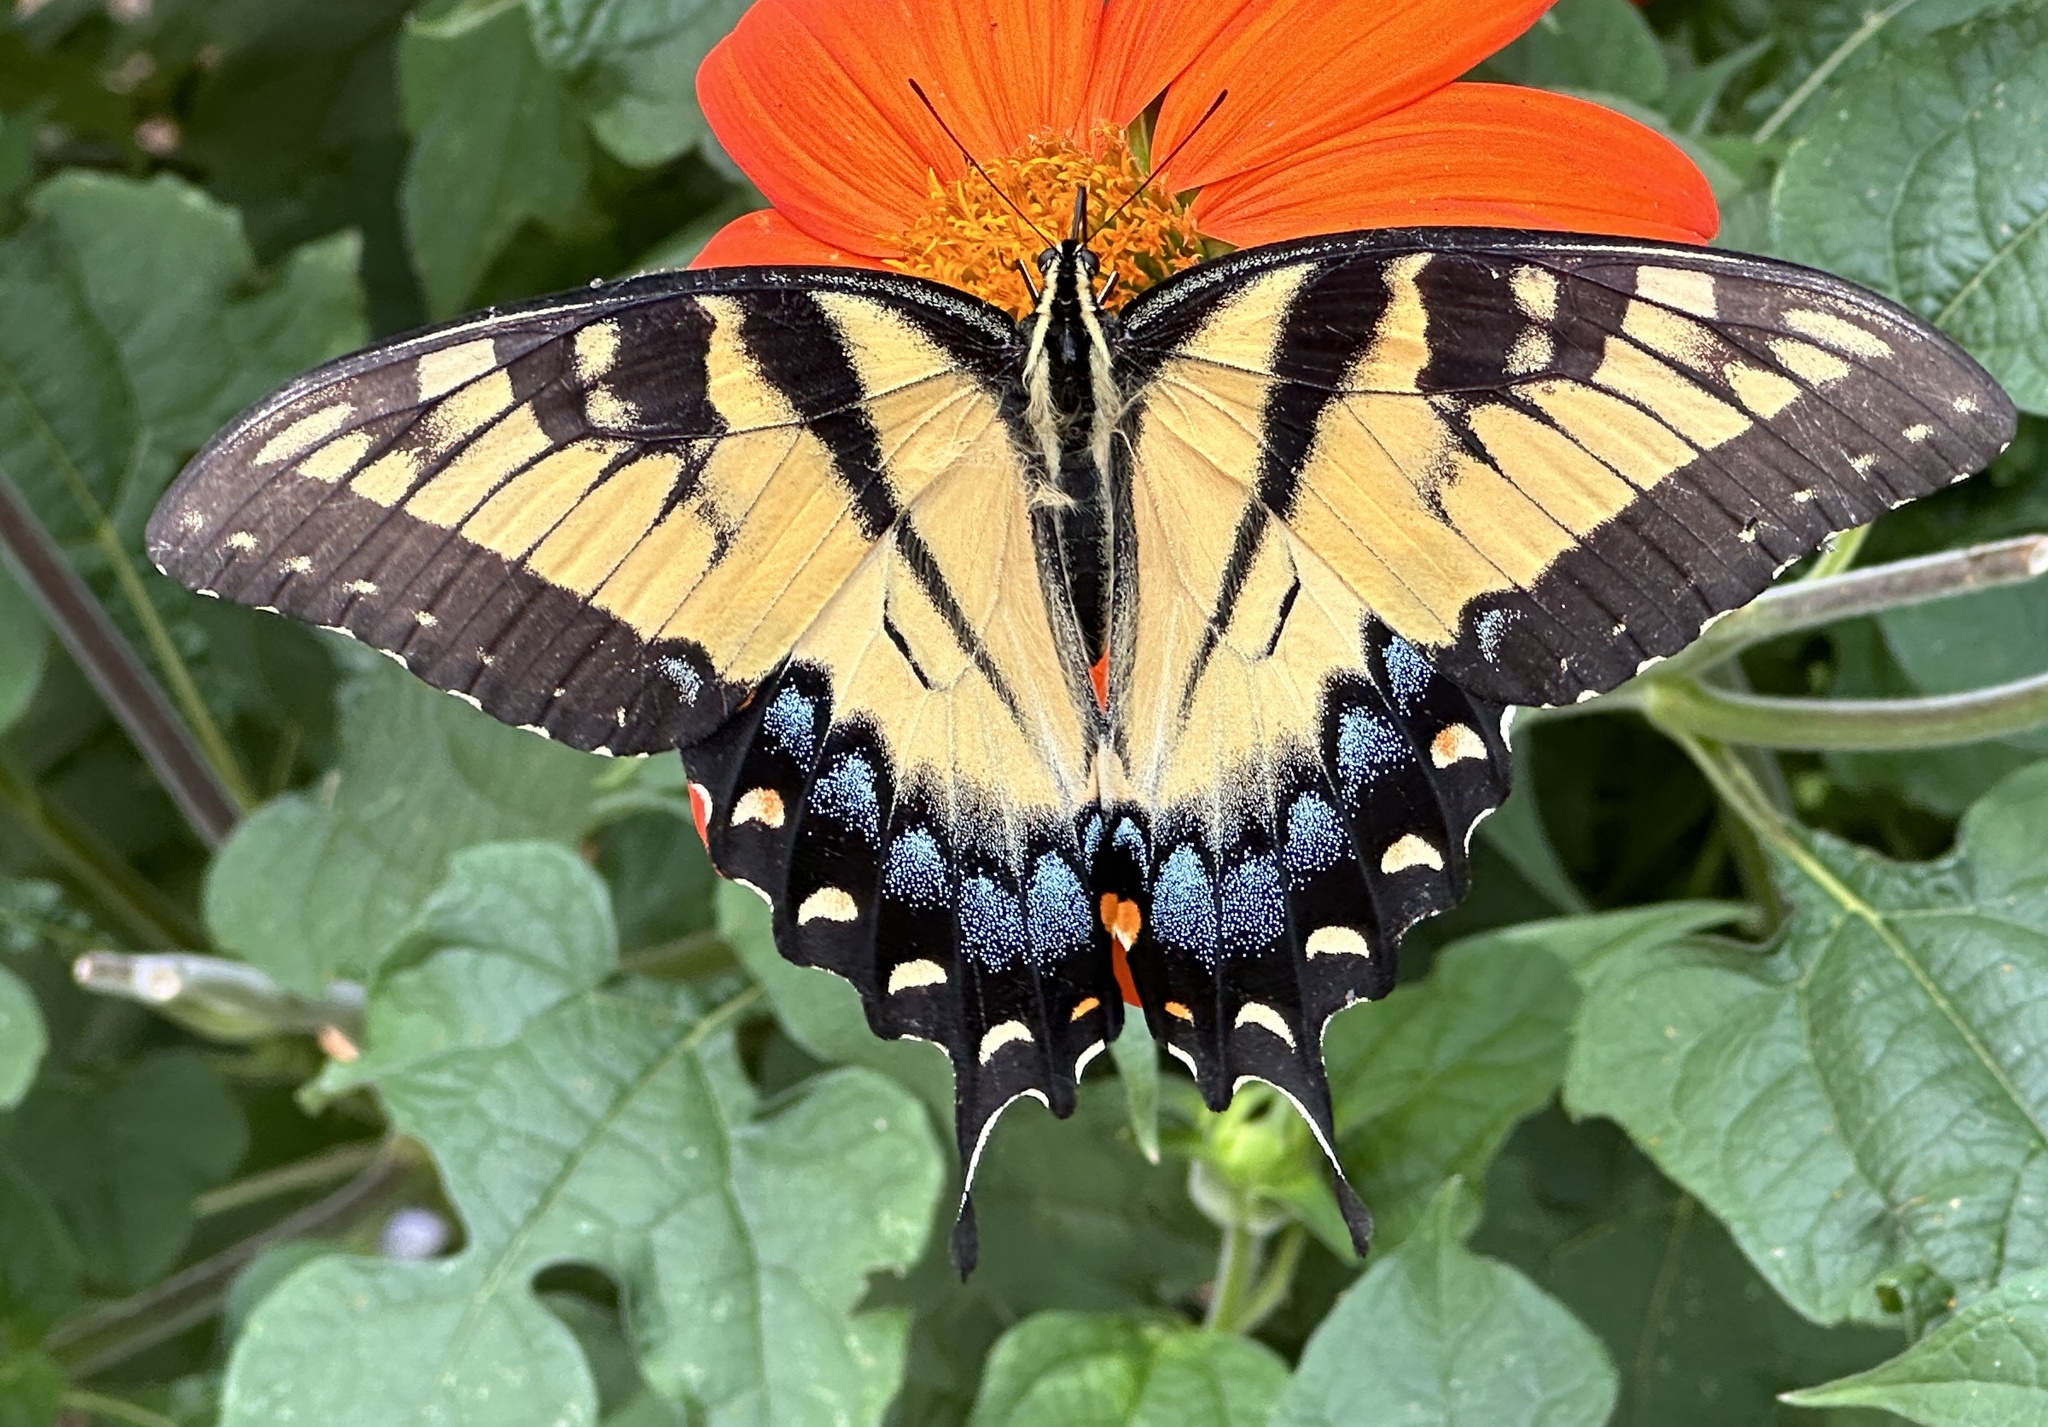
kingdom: Animalia
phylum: Arthropoda
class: Insecta
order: Lepidoptera
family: Papilionidae
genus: Papilio
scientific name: Papilio glaucus
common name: Tiger swallowtail
